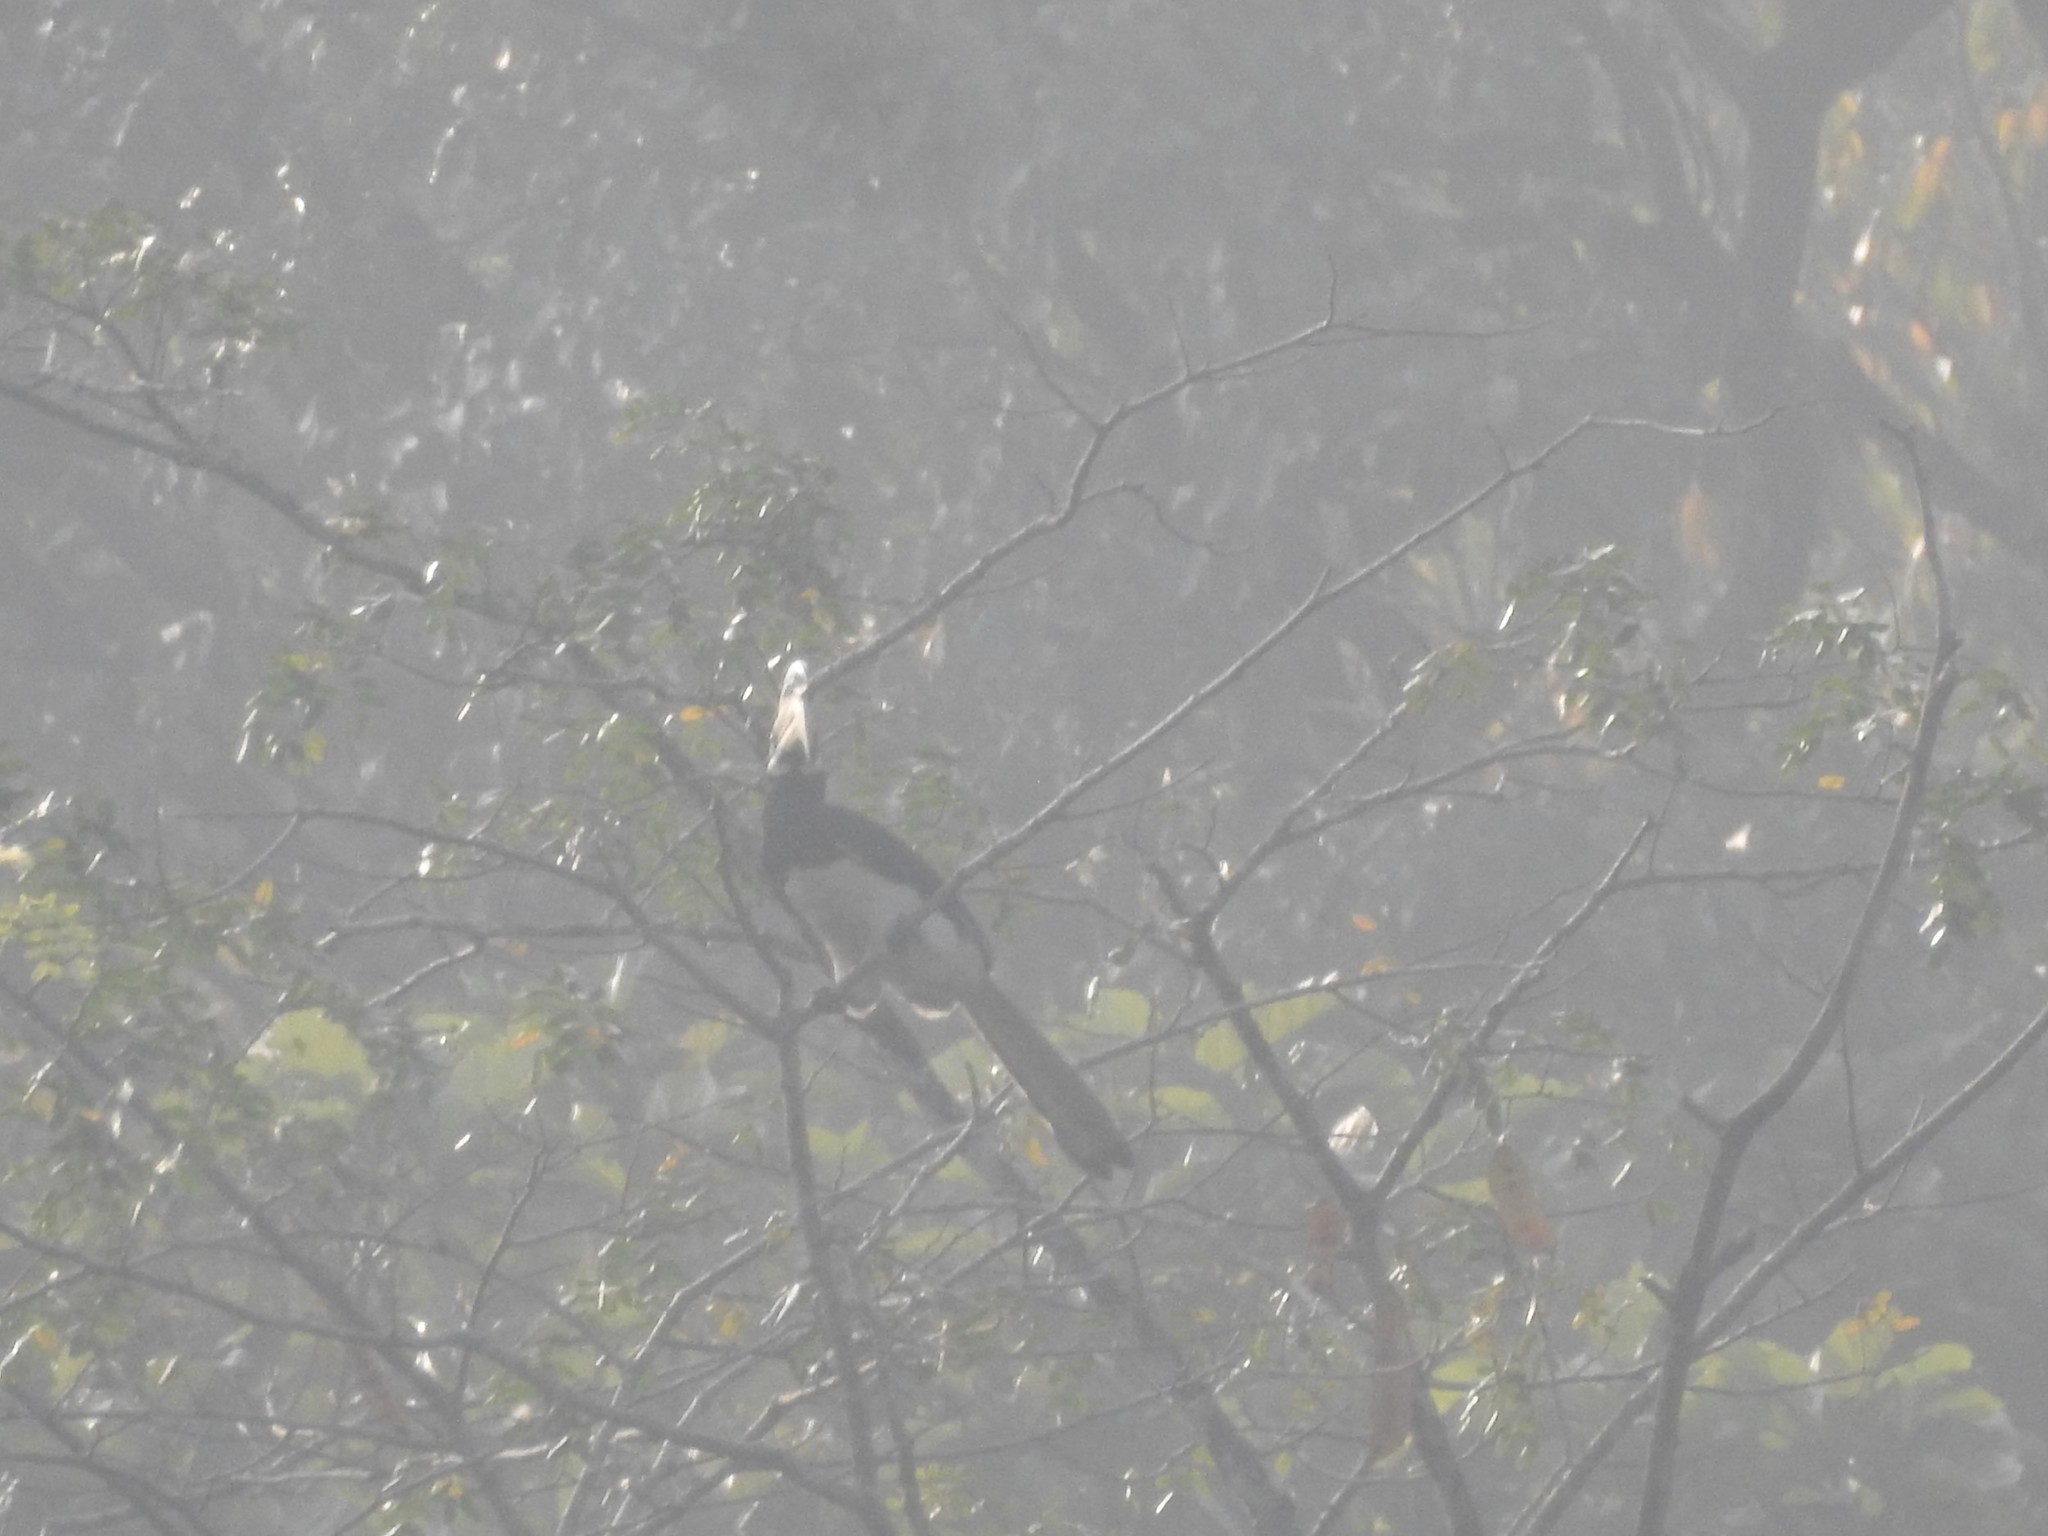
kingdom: Animalia
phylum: Chordata
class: Aves
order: Bucerotiformes
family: Bucerotidae
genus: Anthracoceros
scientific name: Anthracoceros coronatus
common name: Malabar pied hornbill
